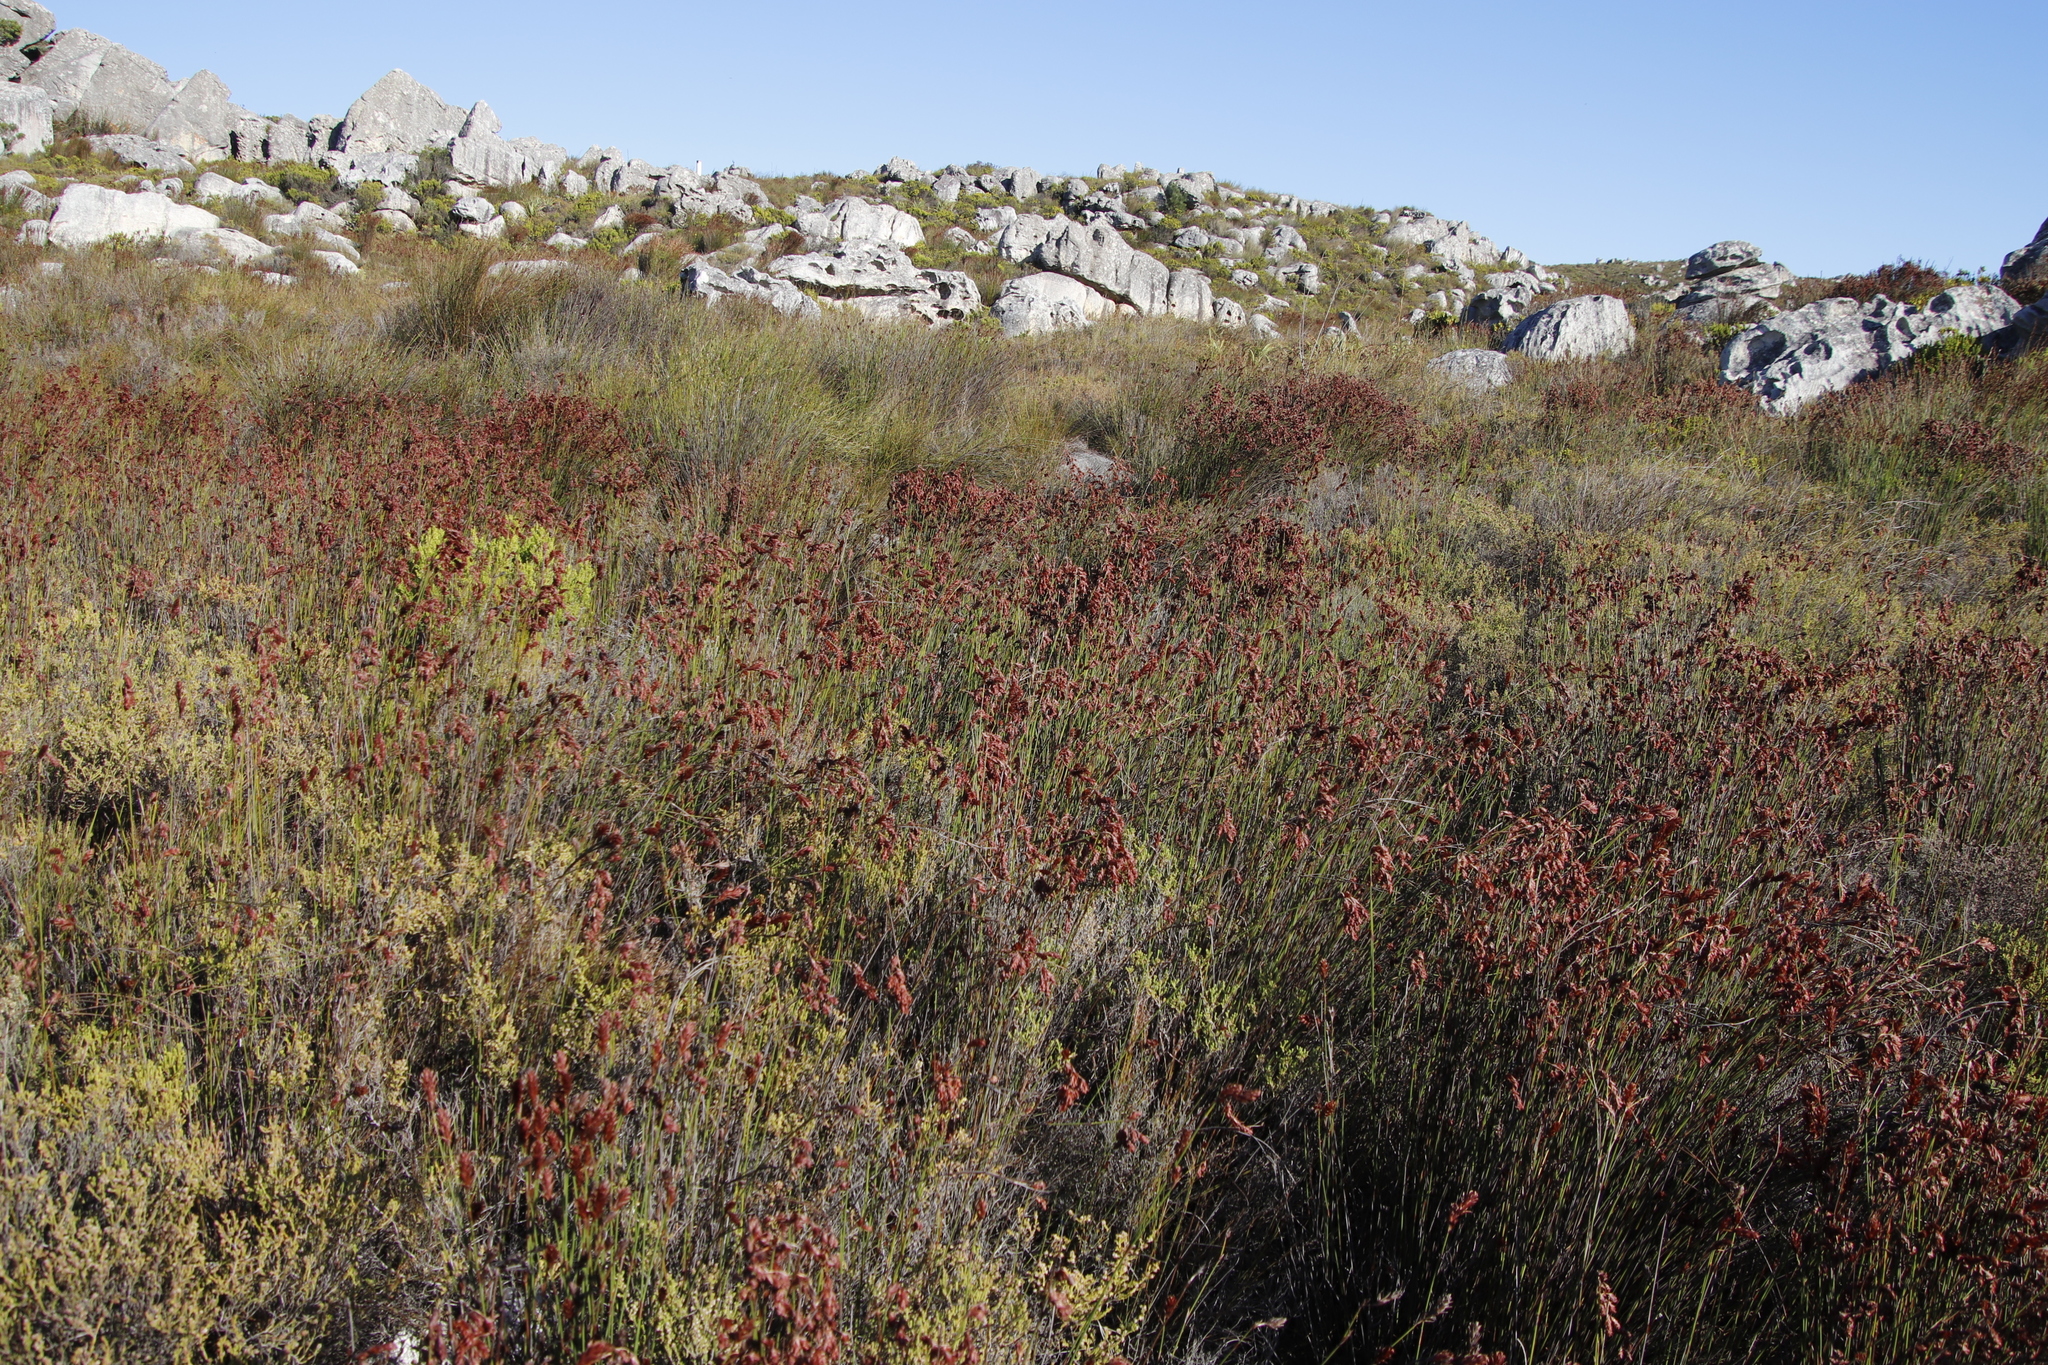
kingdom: Plantae
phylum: Tracheophyta
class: Liliopsida
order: Poales
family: Restionaceae
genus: Staberoha
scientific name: Staberoha vaginata
